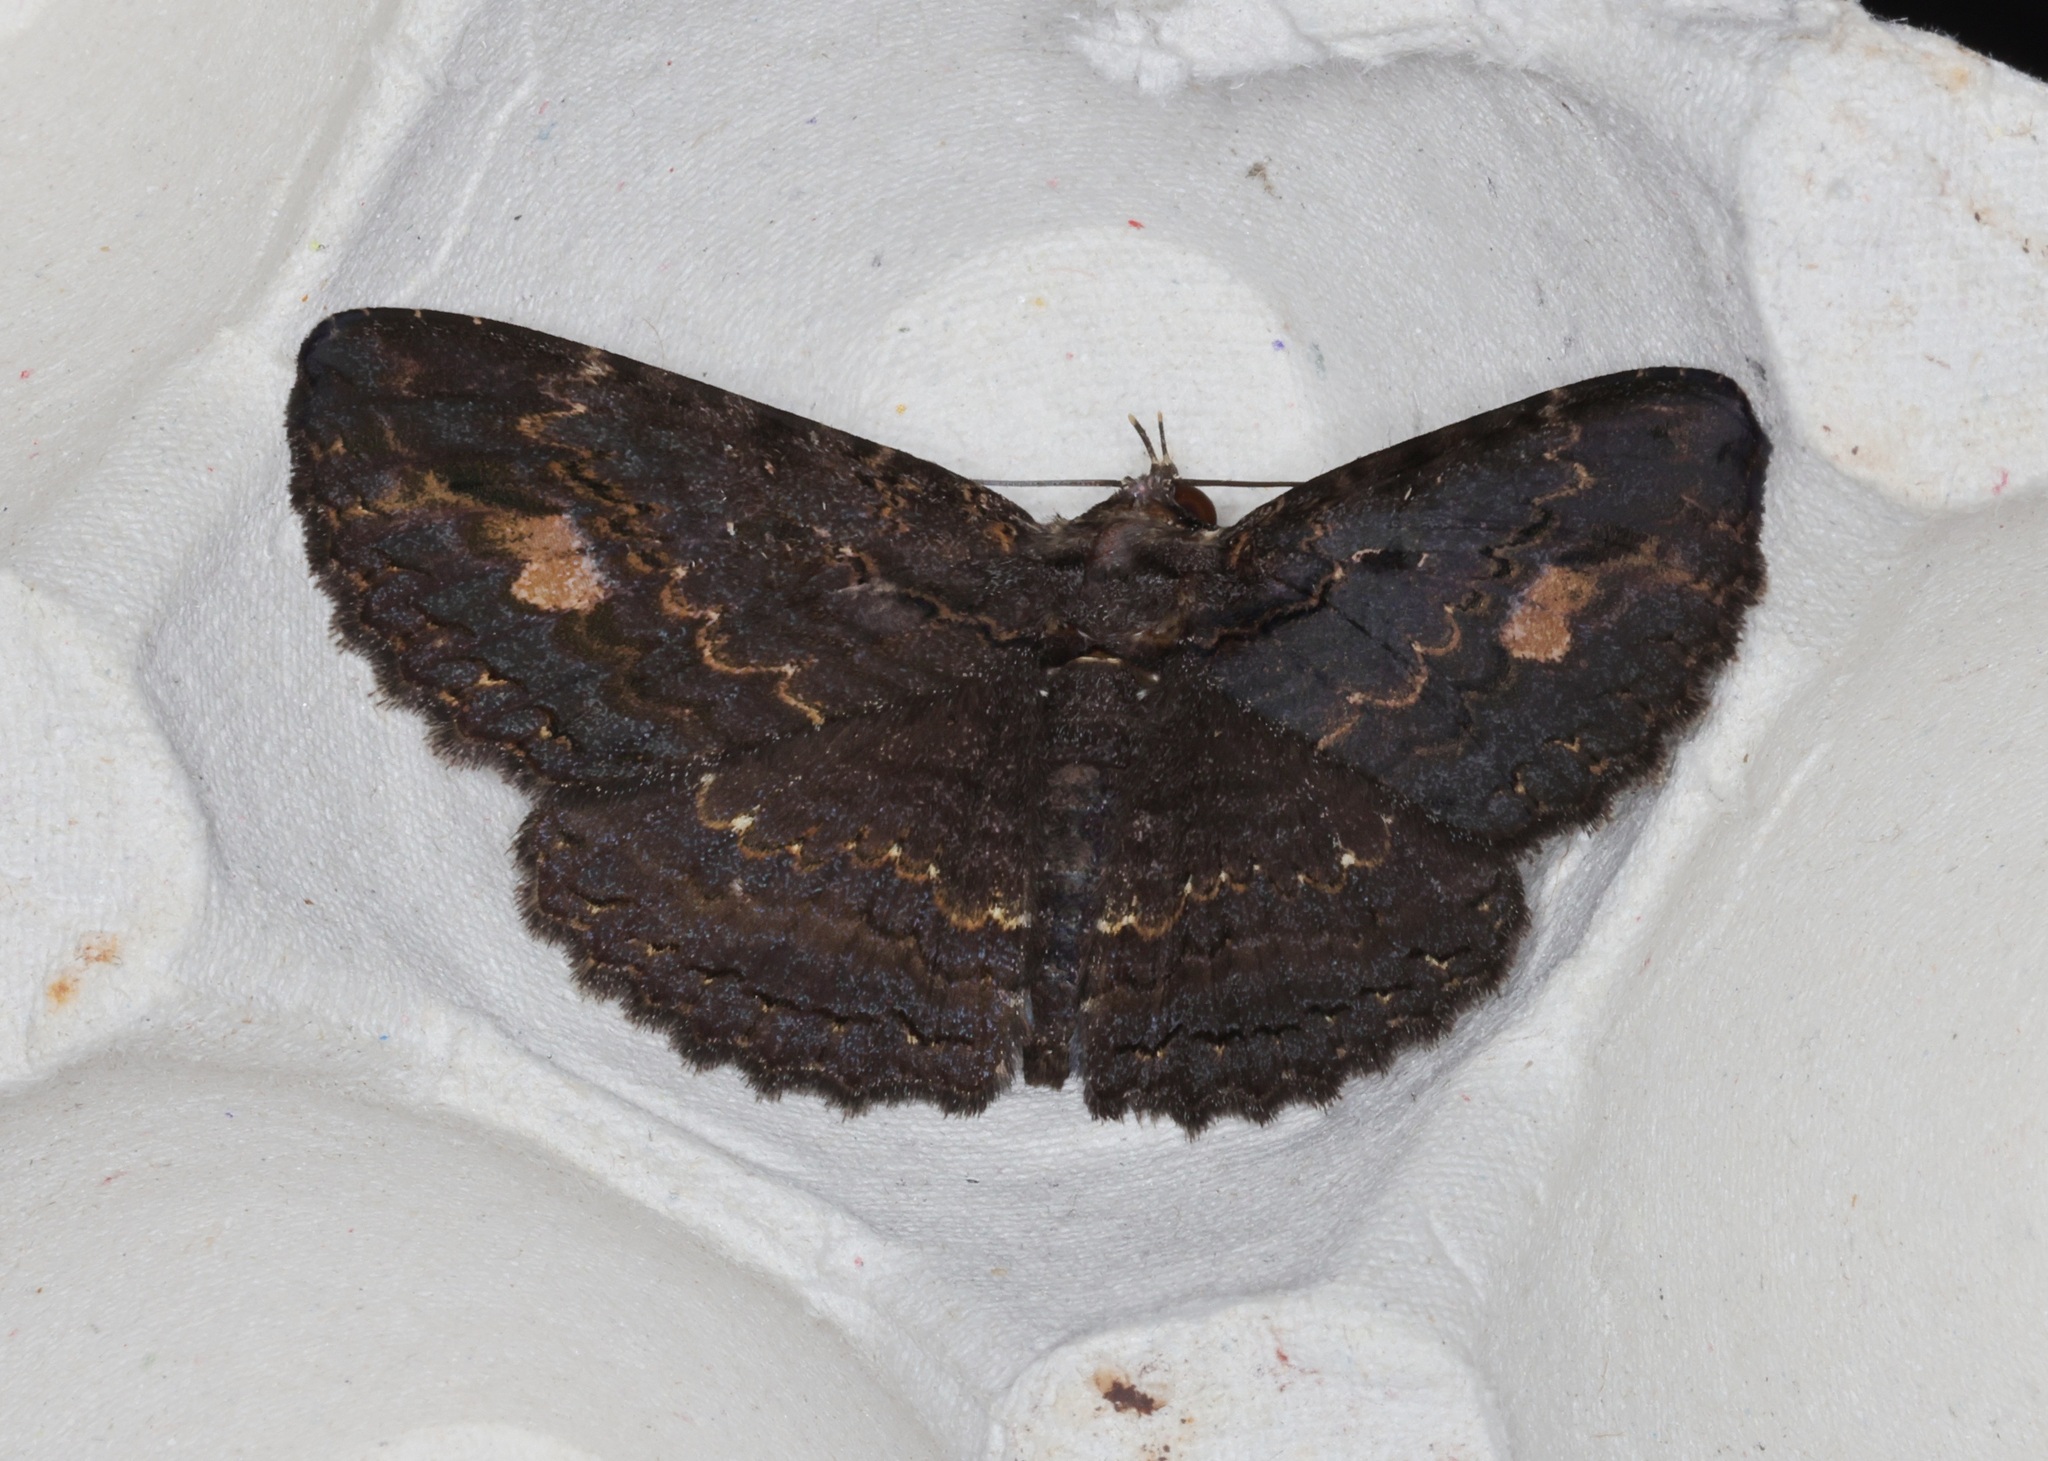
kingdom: Animalia
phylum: Arthropoda
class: Insecta
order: Lepidoptera
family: Erebidae
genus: Anisoneura
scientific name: Anisoneura salebrosa
